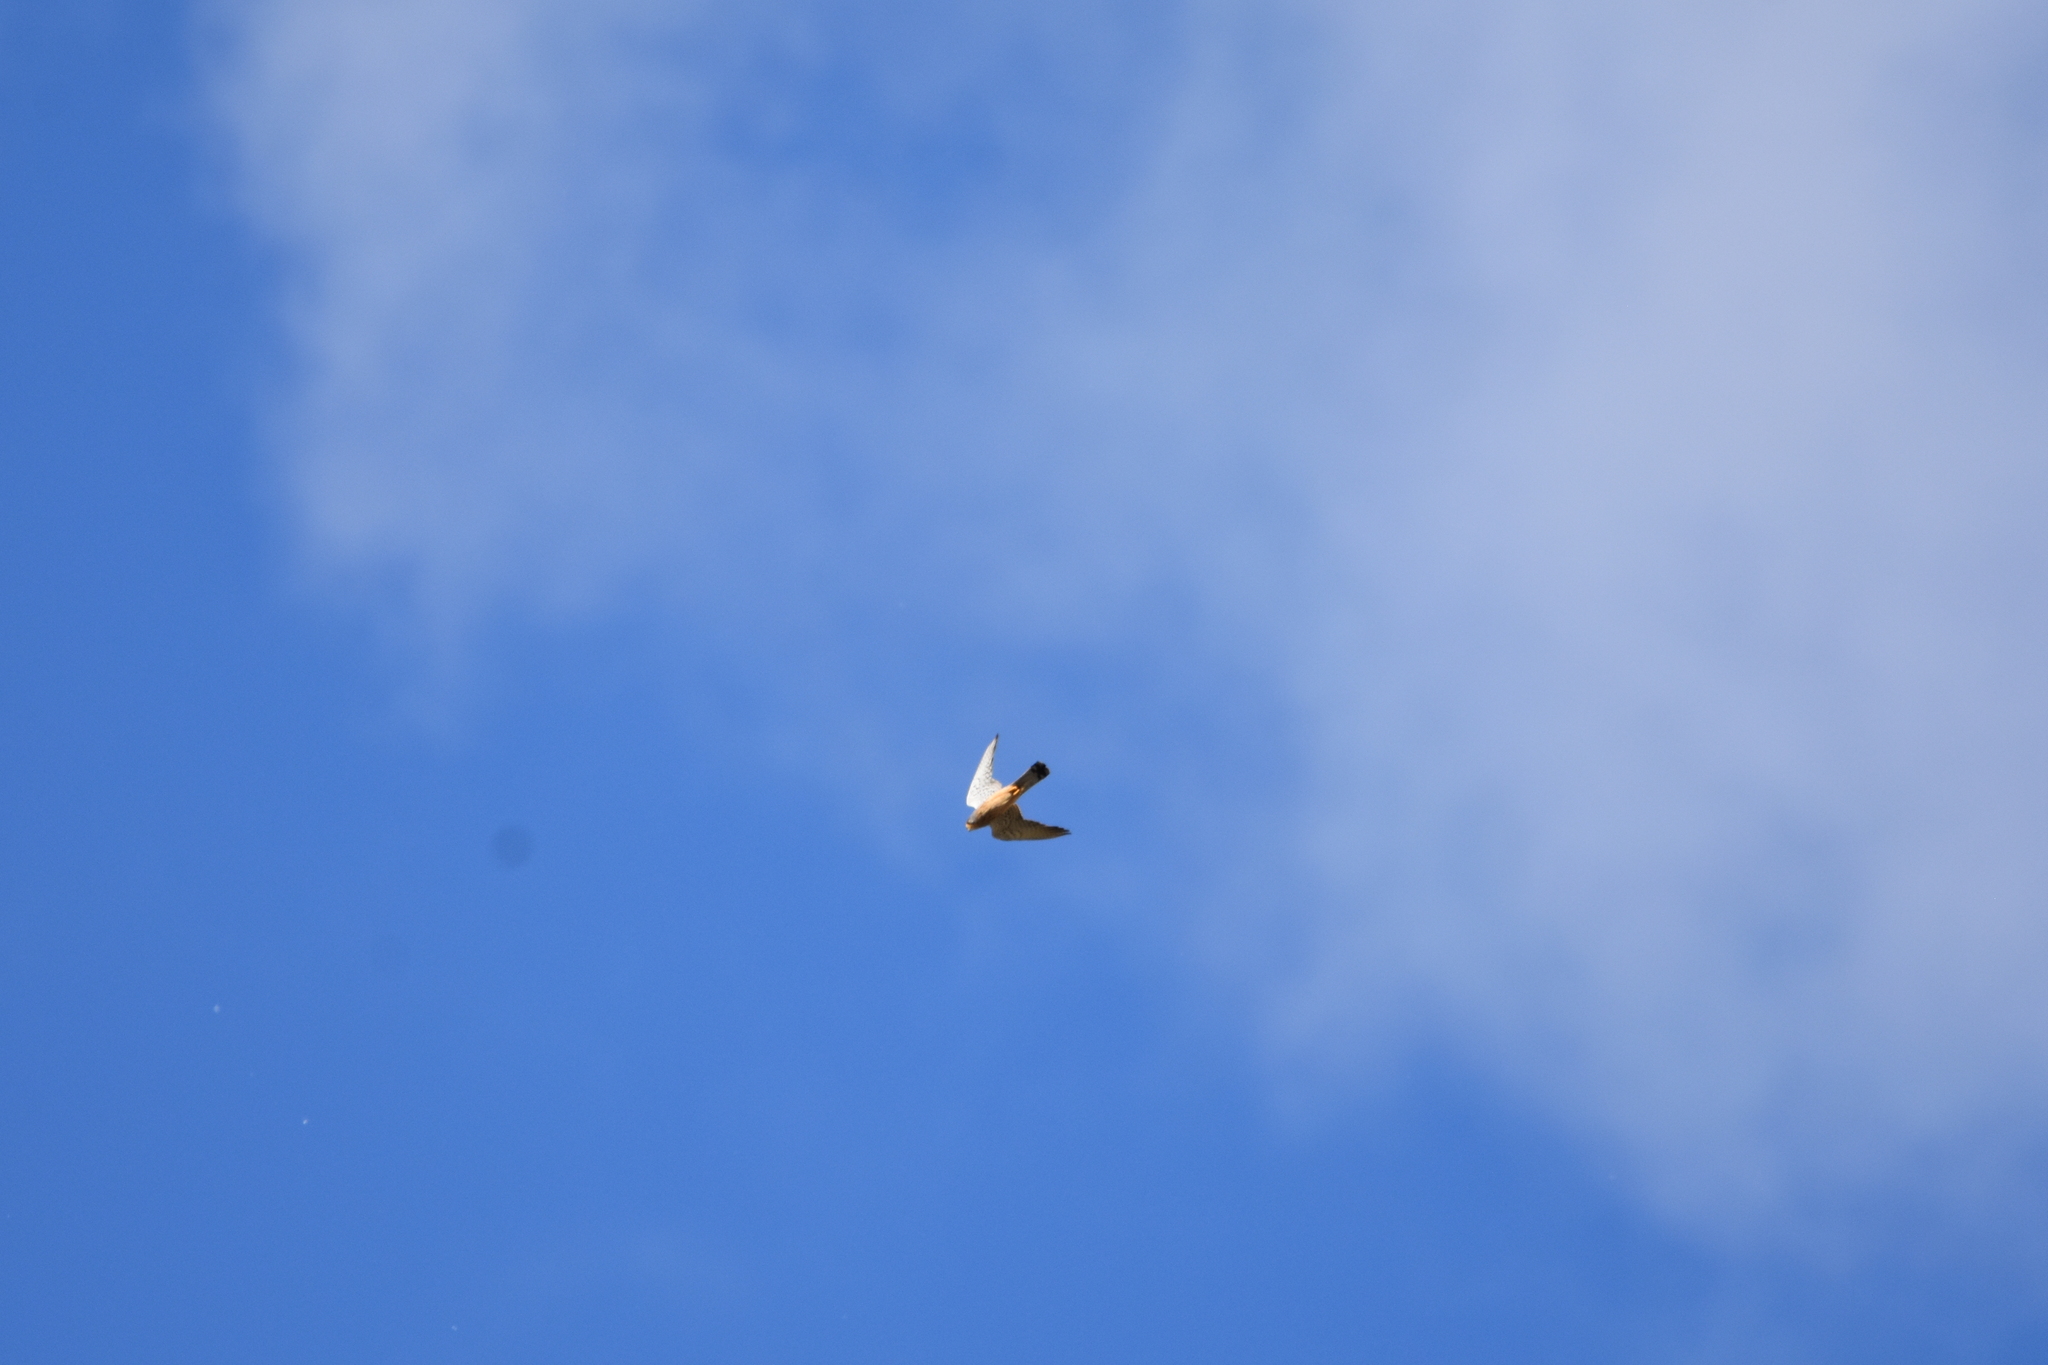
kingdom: Animalia
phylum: Chordata
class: Aves
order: Falconiformes
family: Falconidae
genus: Falco
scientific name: Falco tinnunculus
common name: Common kestrel
